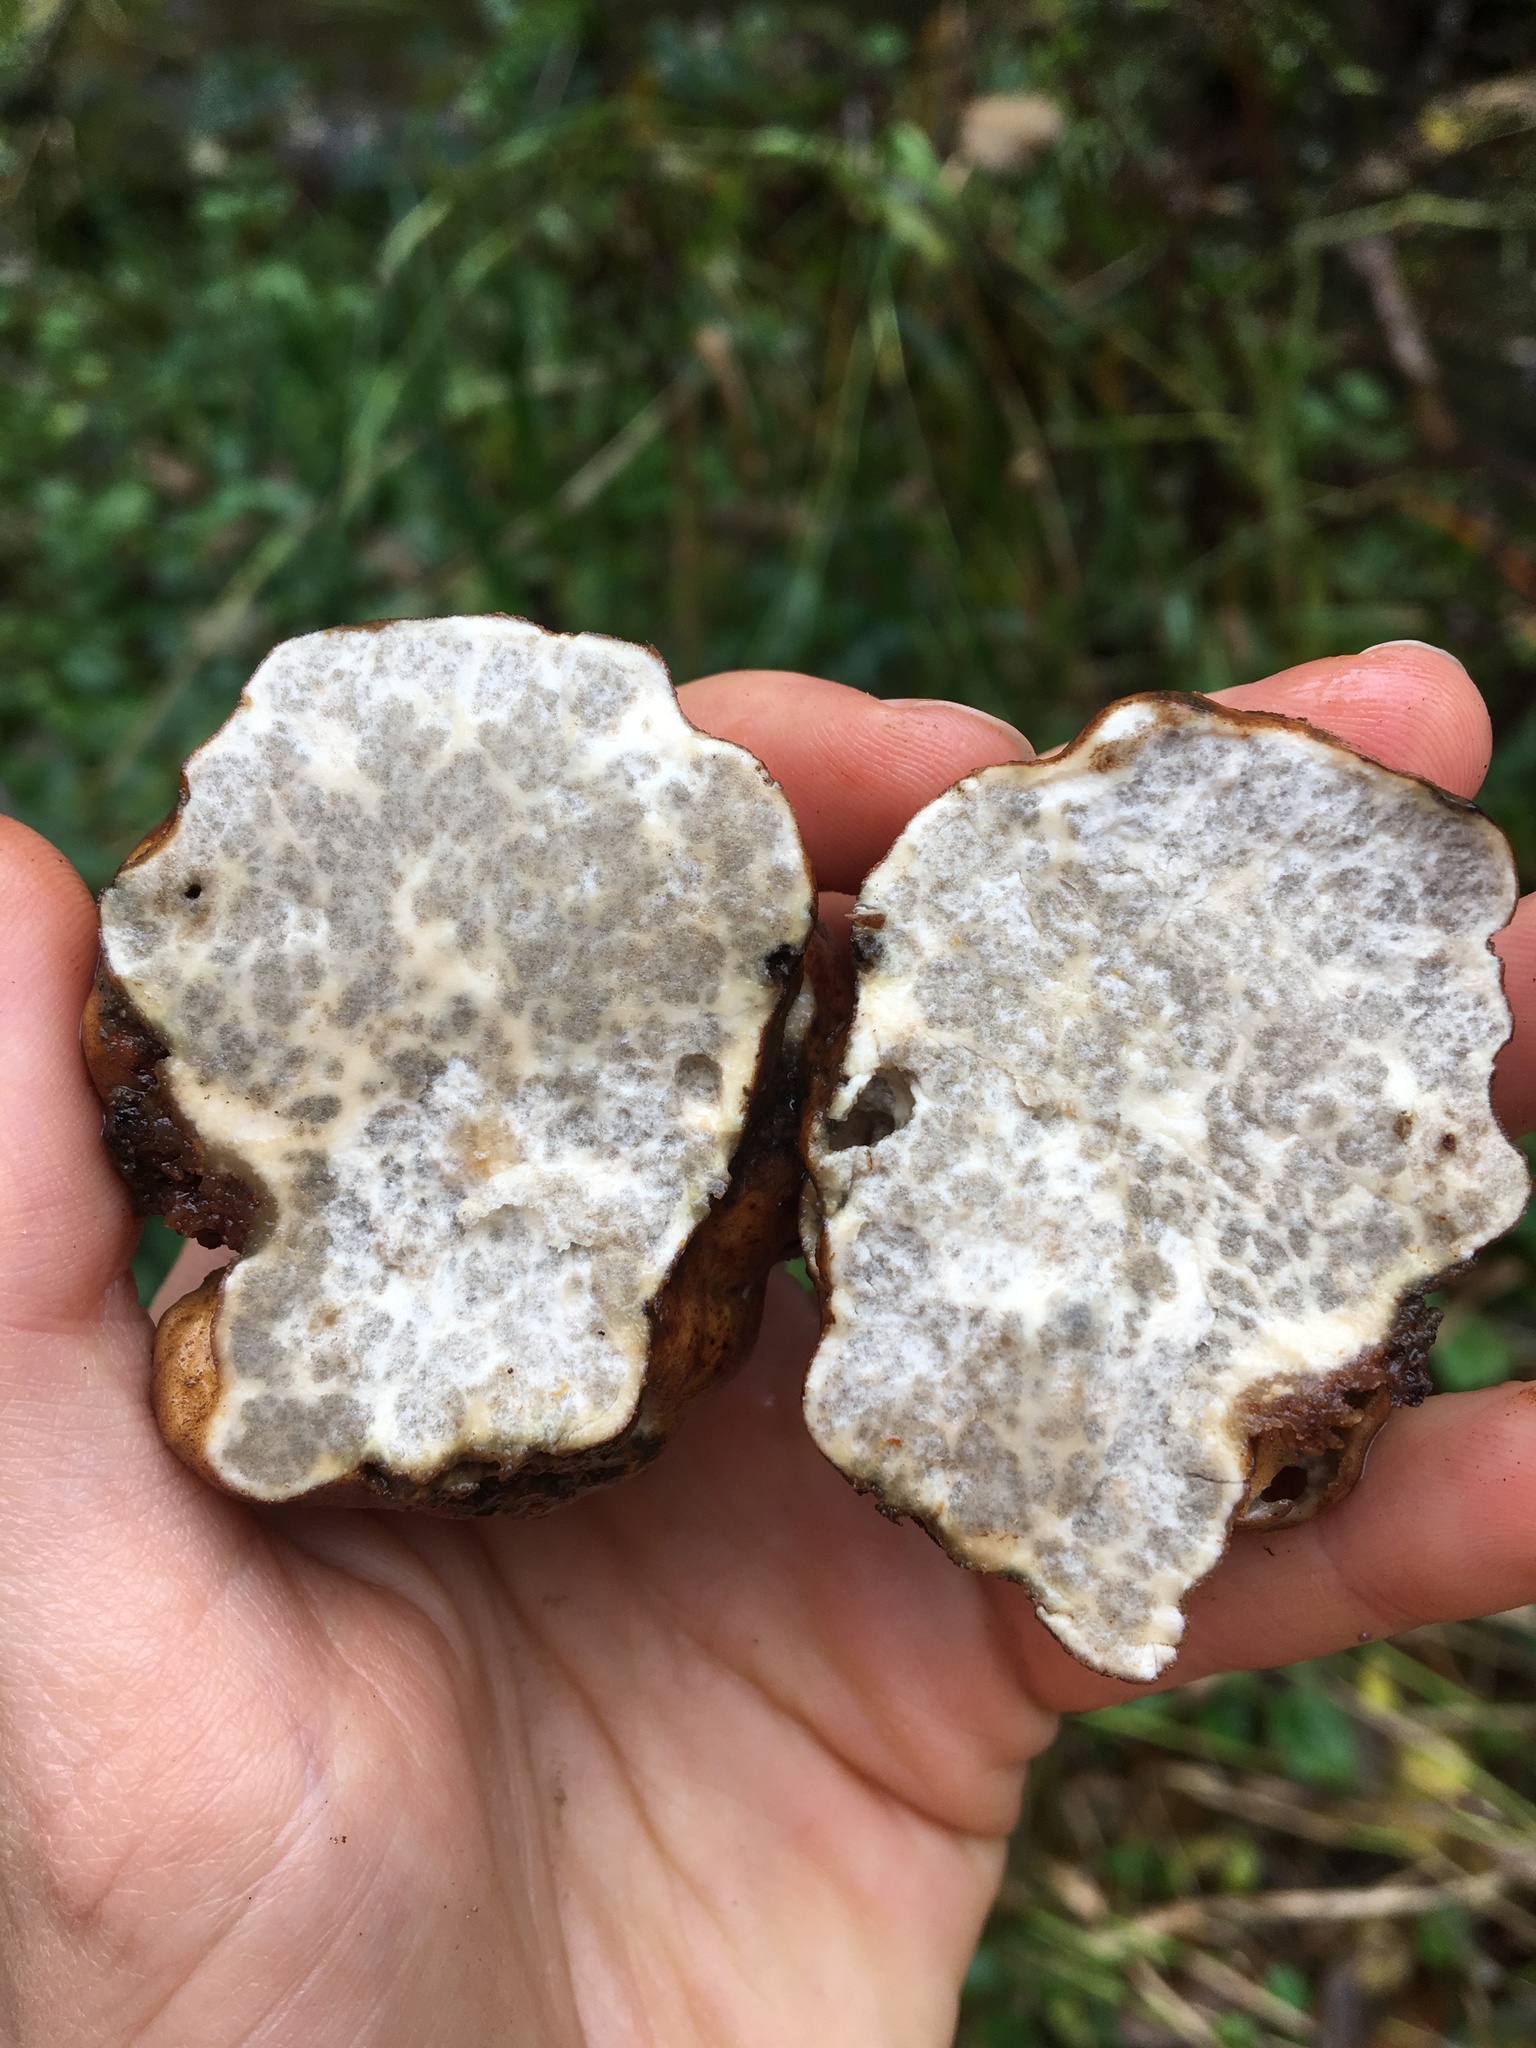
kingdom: Fungi
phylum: Ascomycota
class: Pezizomycetes
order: Pezizales
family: Morchellaceae
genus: Kalapuya
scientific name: Kalapuya brunnea
